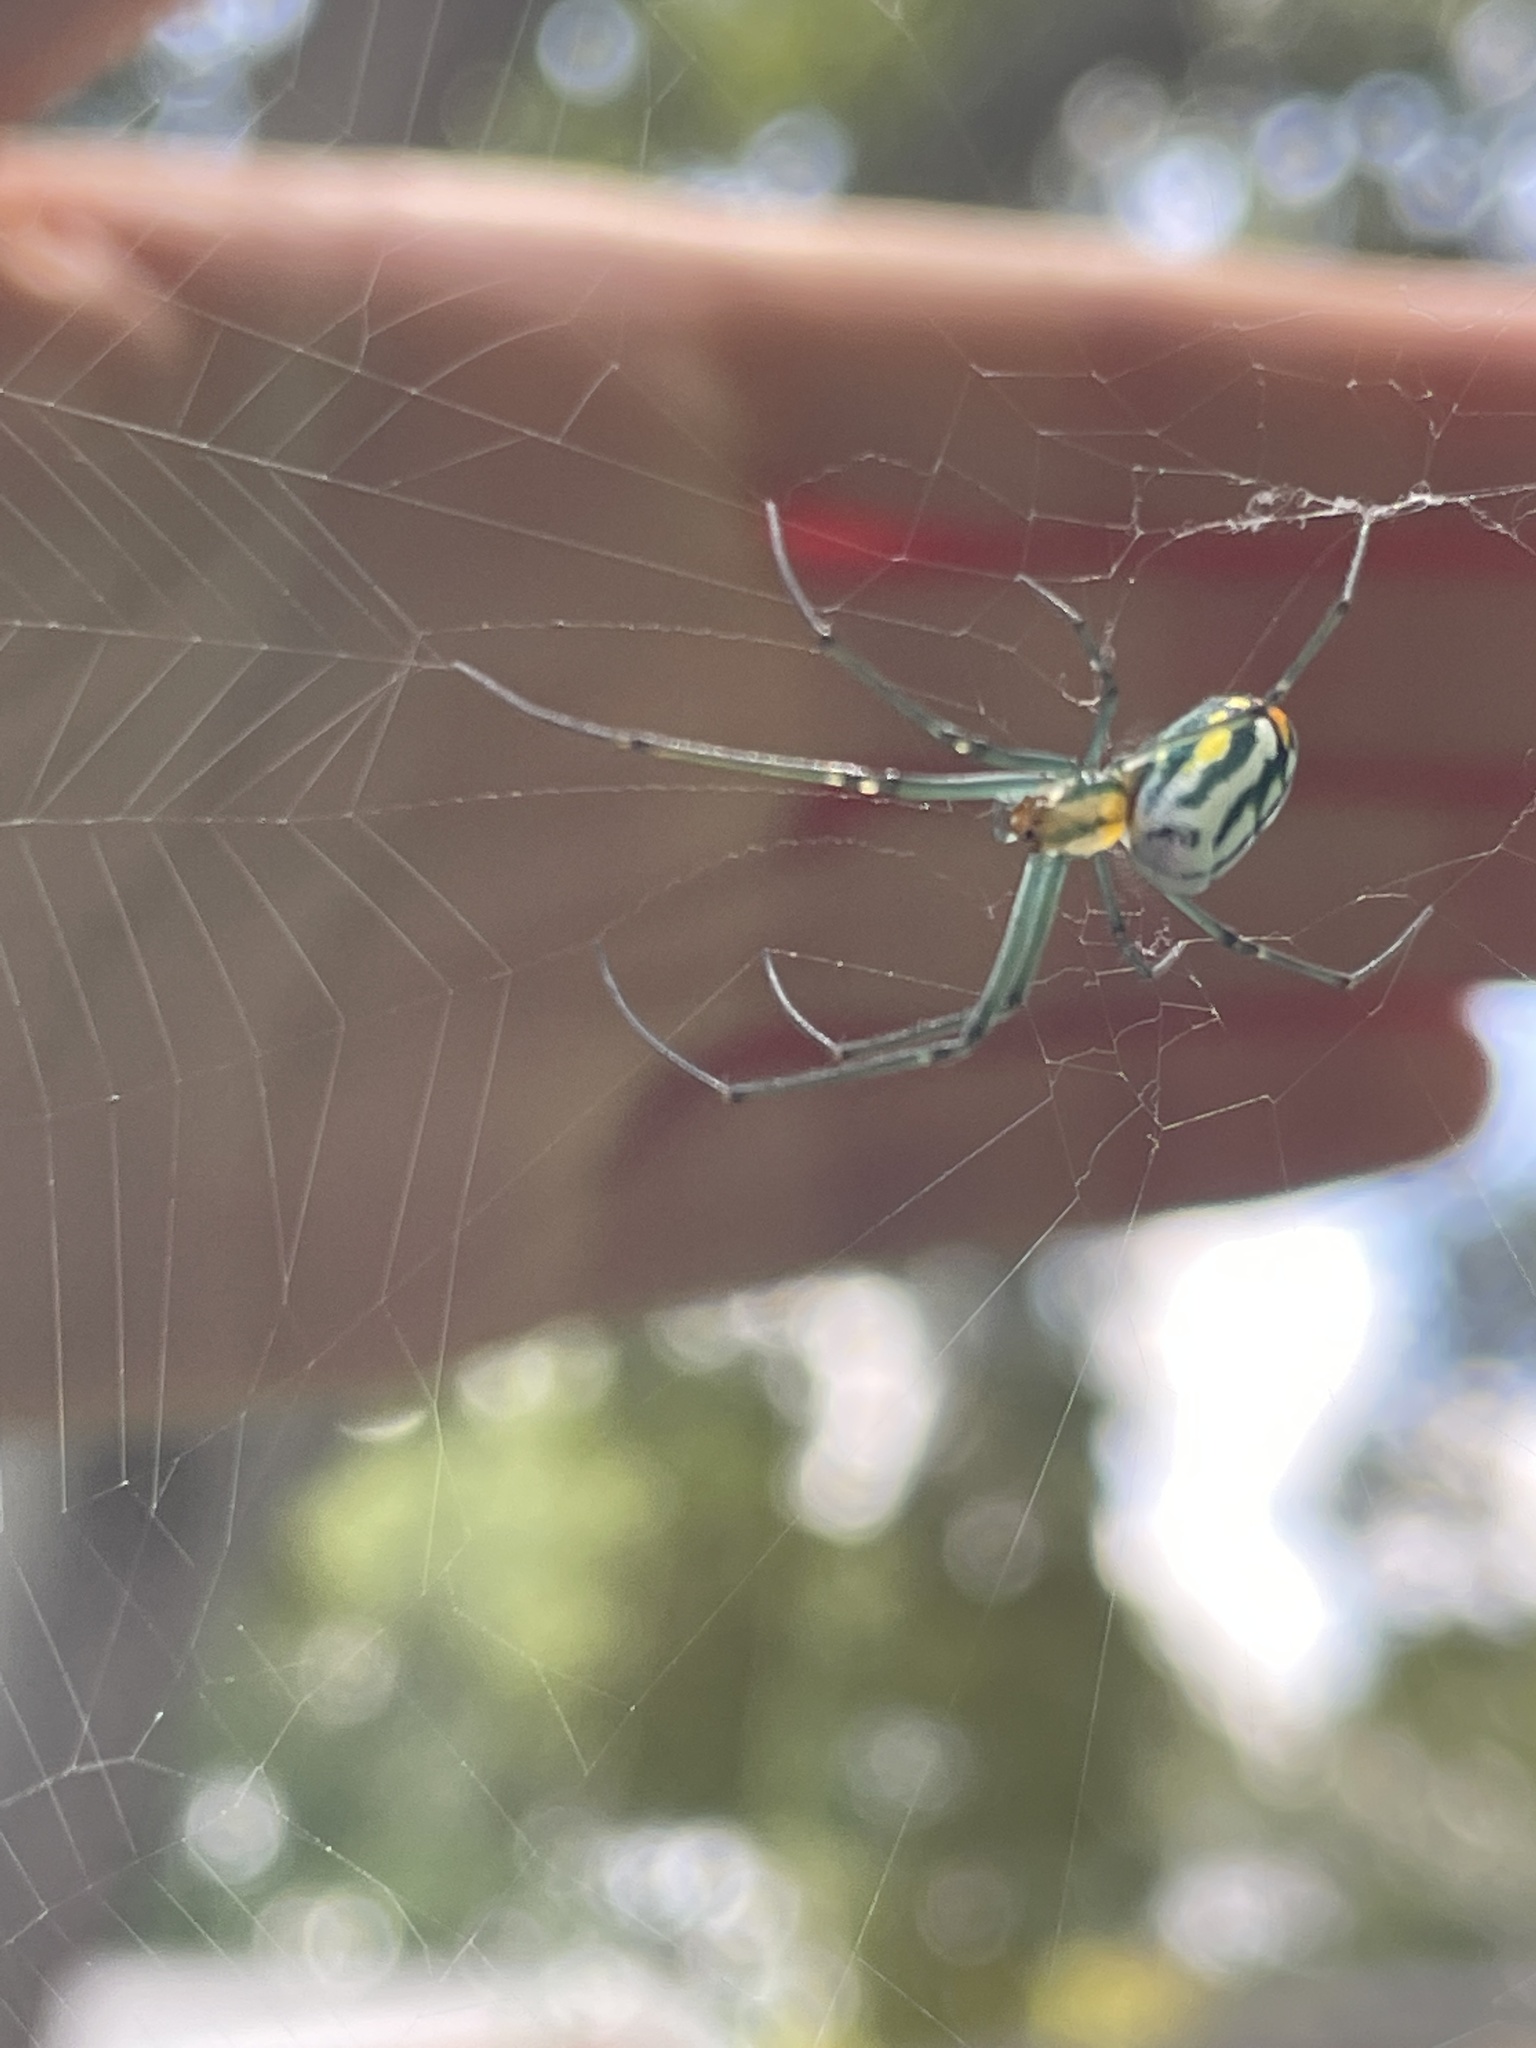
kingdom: Animalia
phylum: Arthropoda
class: Arachnida
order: Araneae
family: Tetragnathidae
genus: Leucauge
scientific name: Leucauge argyrobapta
